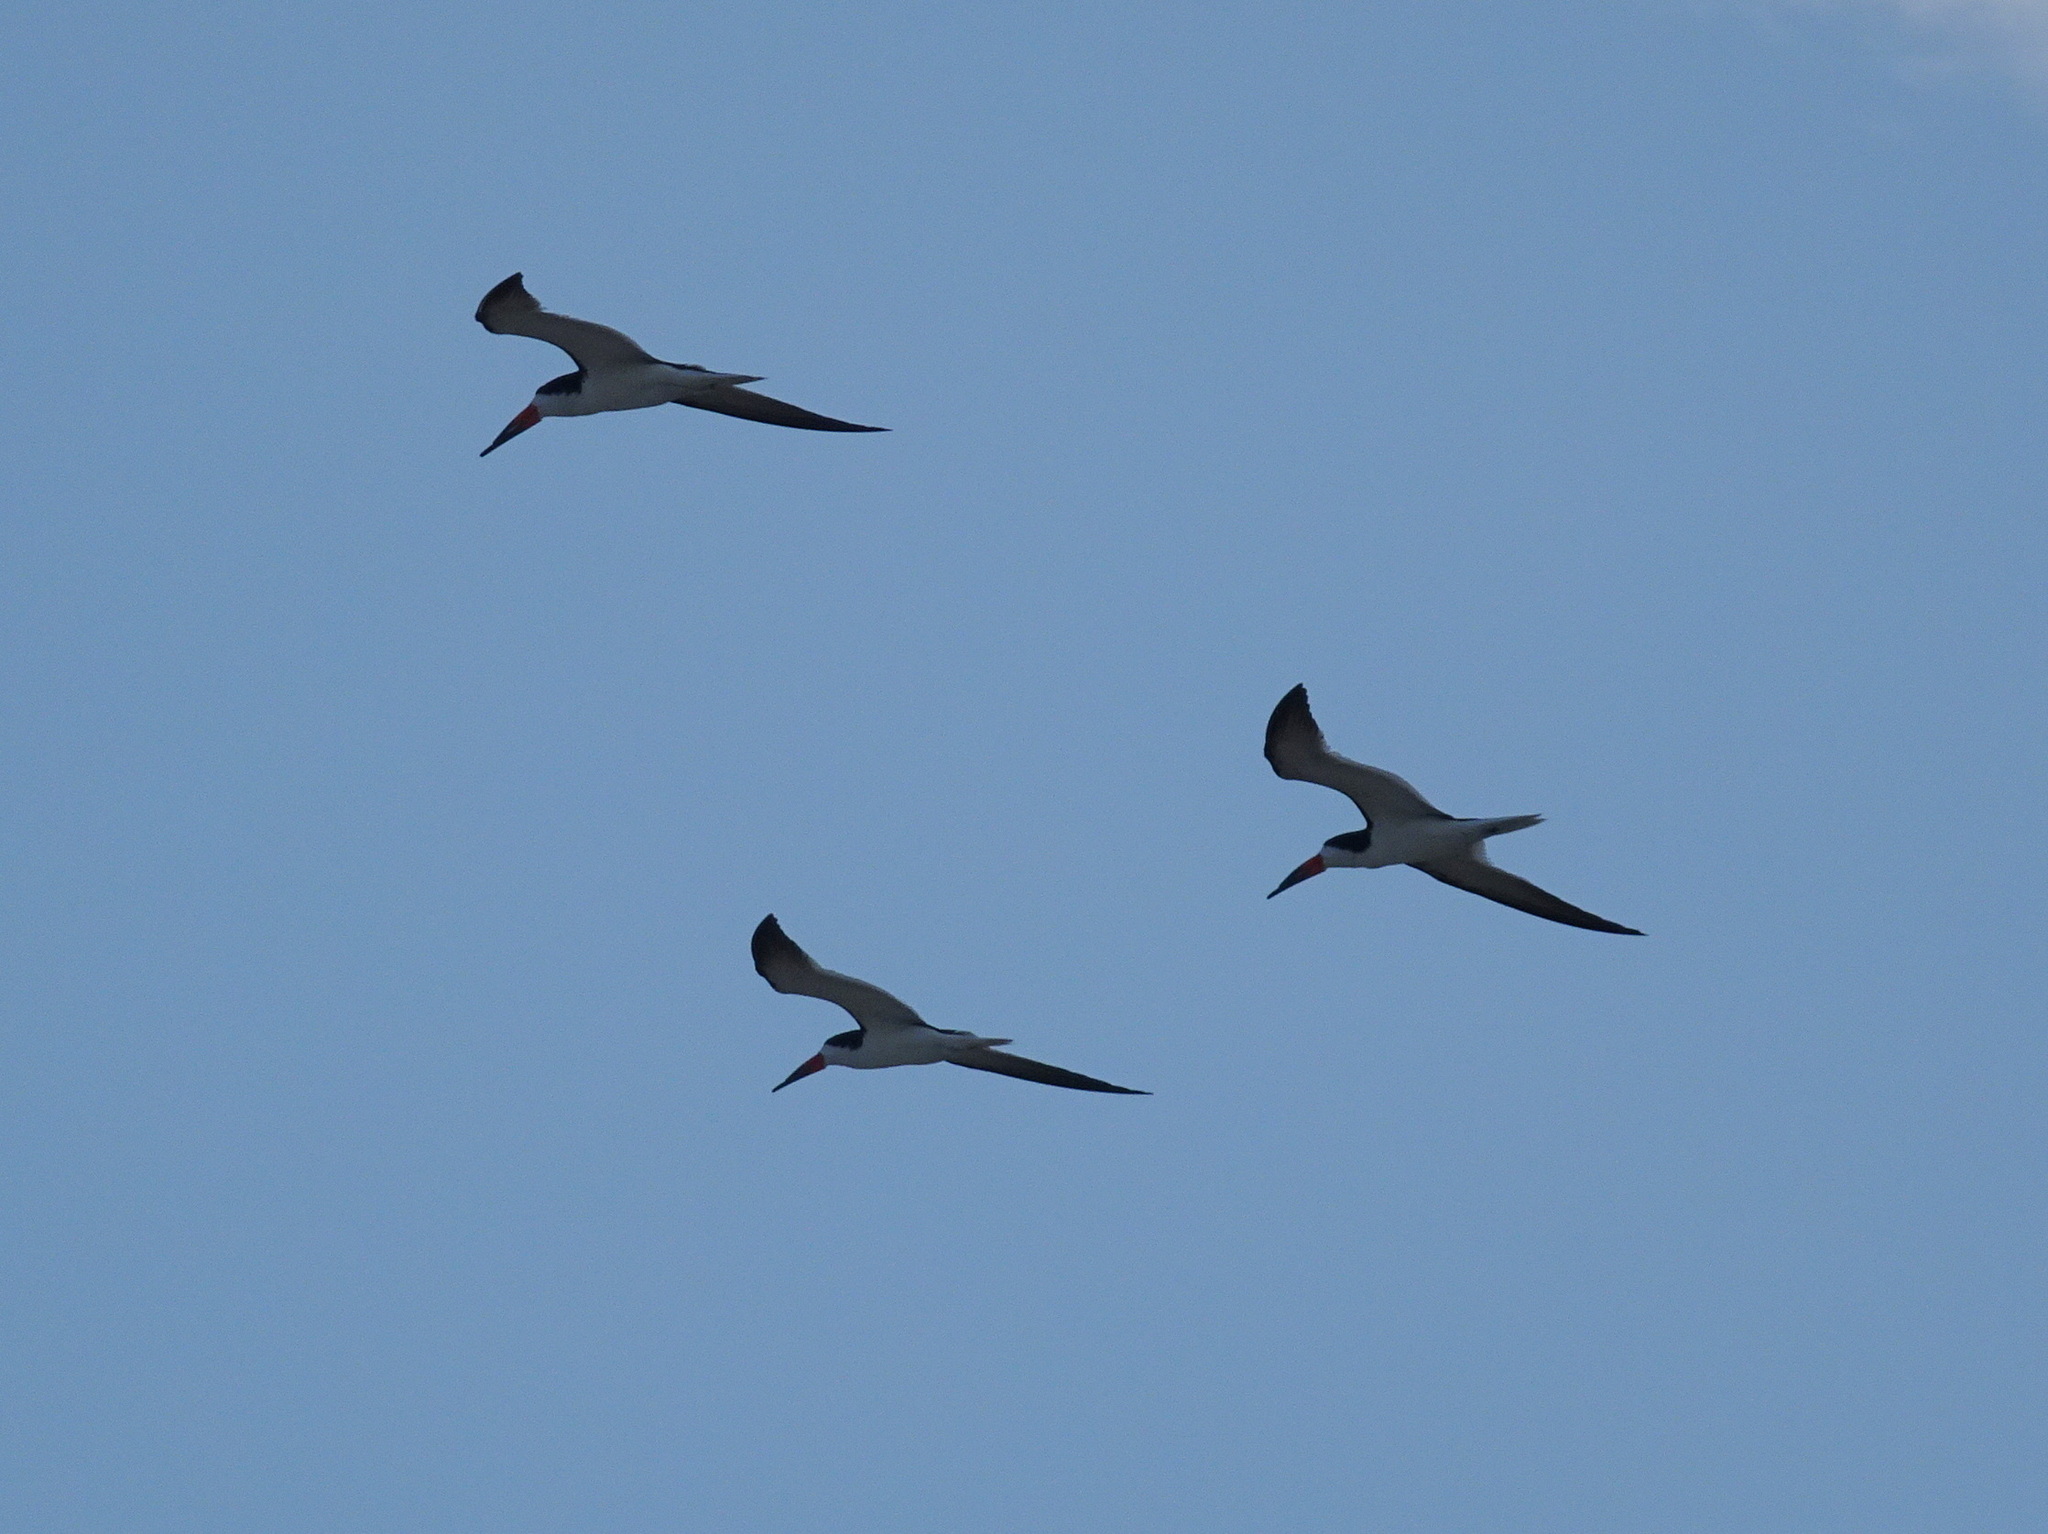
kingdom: Animalia
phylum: Chordata
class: Aves
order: Charadriiformes
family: Laridae
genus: Rynchops
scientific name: Rynchops niger
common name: Black skimmer
